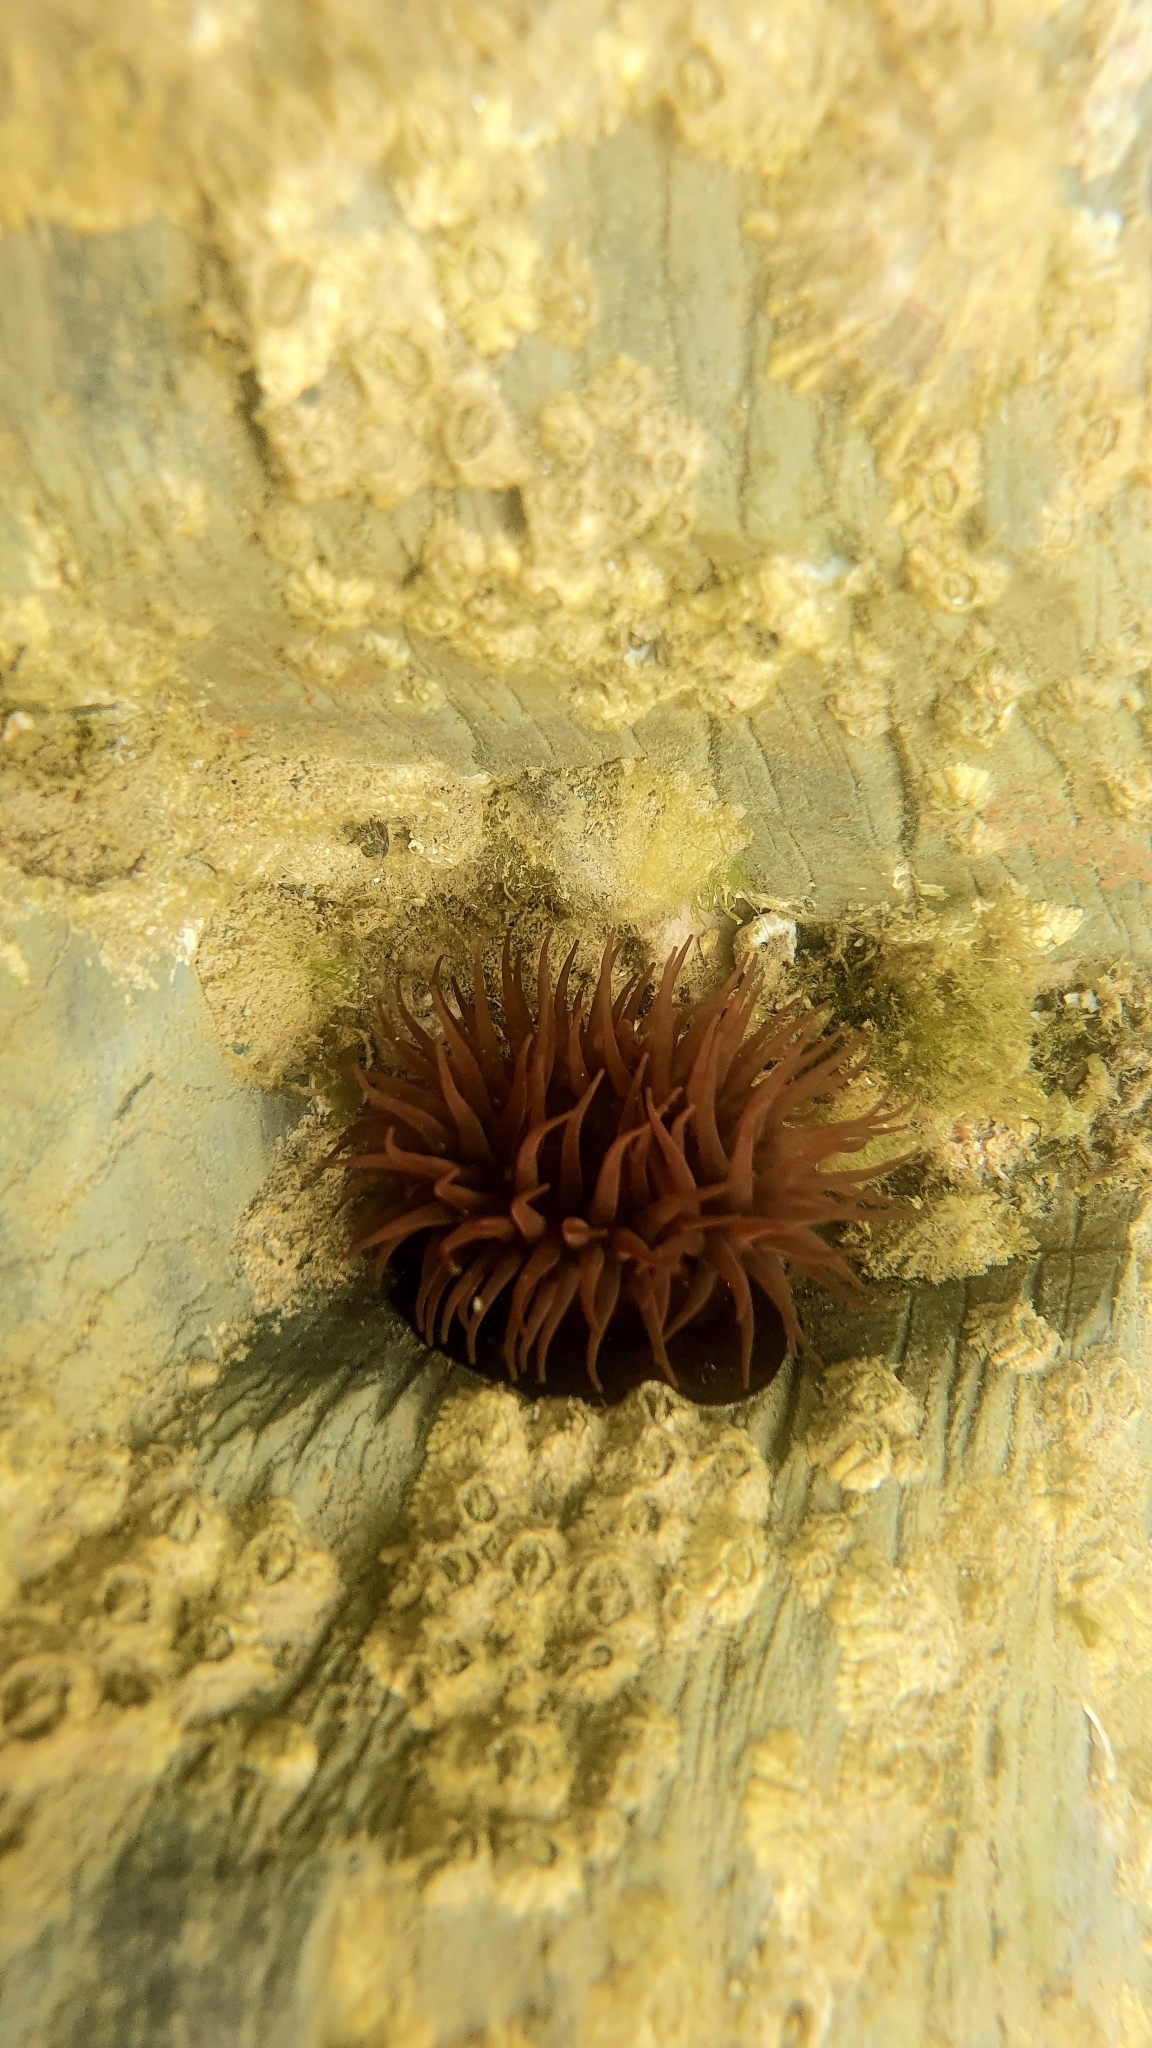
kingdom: Animalia
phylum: Cnidaria
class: Anthozoa
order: Actiniaria
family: Actiniidae
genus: Actinia
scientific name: Actinia equina
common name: Beadlet anemone
